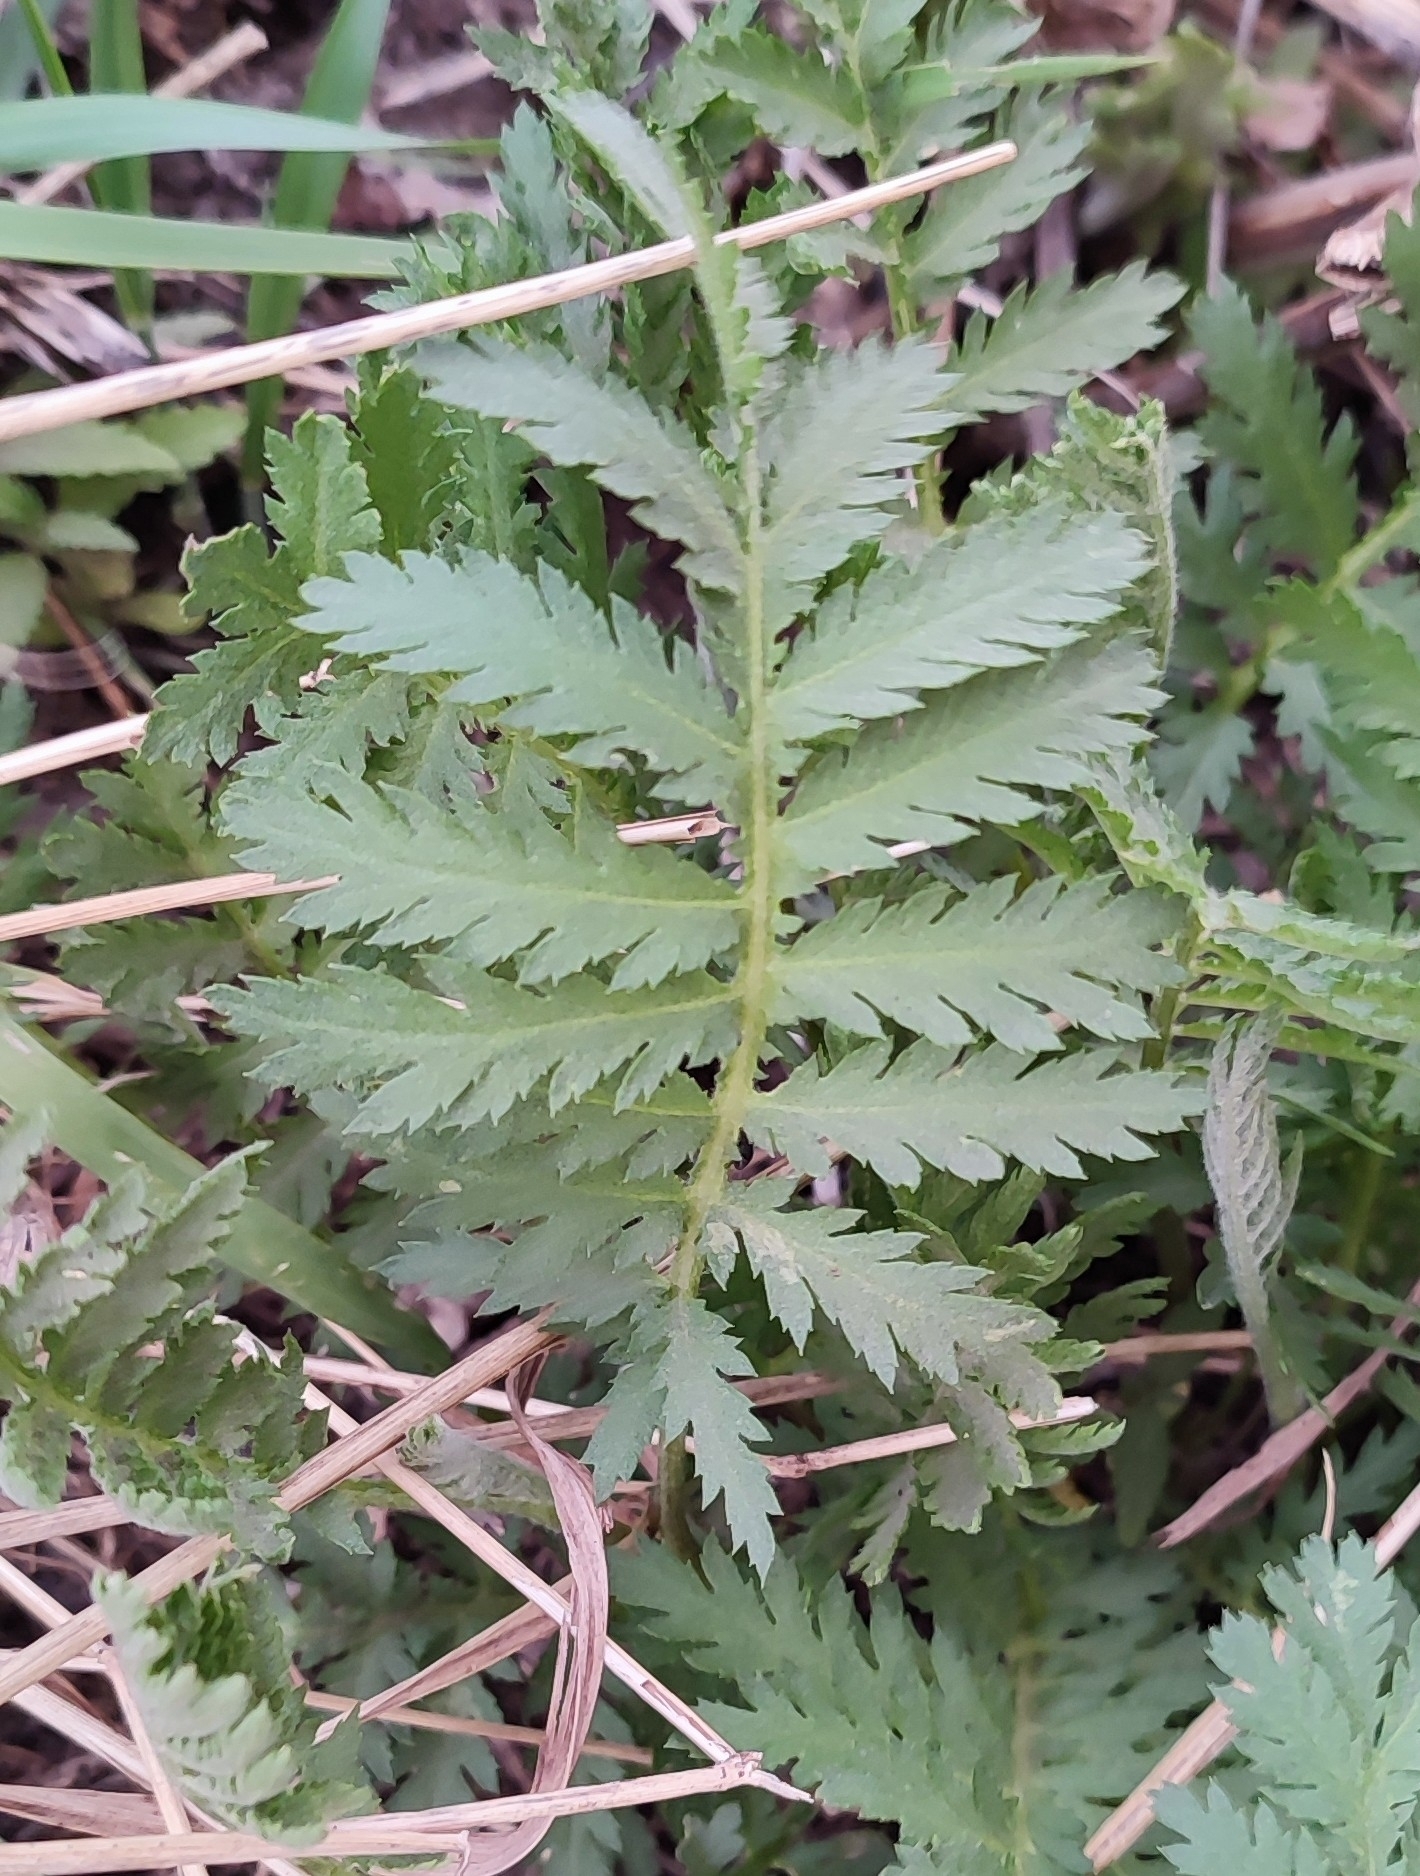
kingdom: Plantae
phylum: Tracheophyta
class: Magnoliopsida
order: Asterales
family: Asteraceae
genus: Tanacetum
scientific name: Tanacetum vulgare
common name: Common tansy
